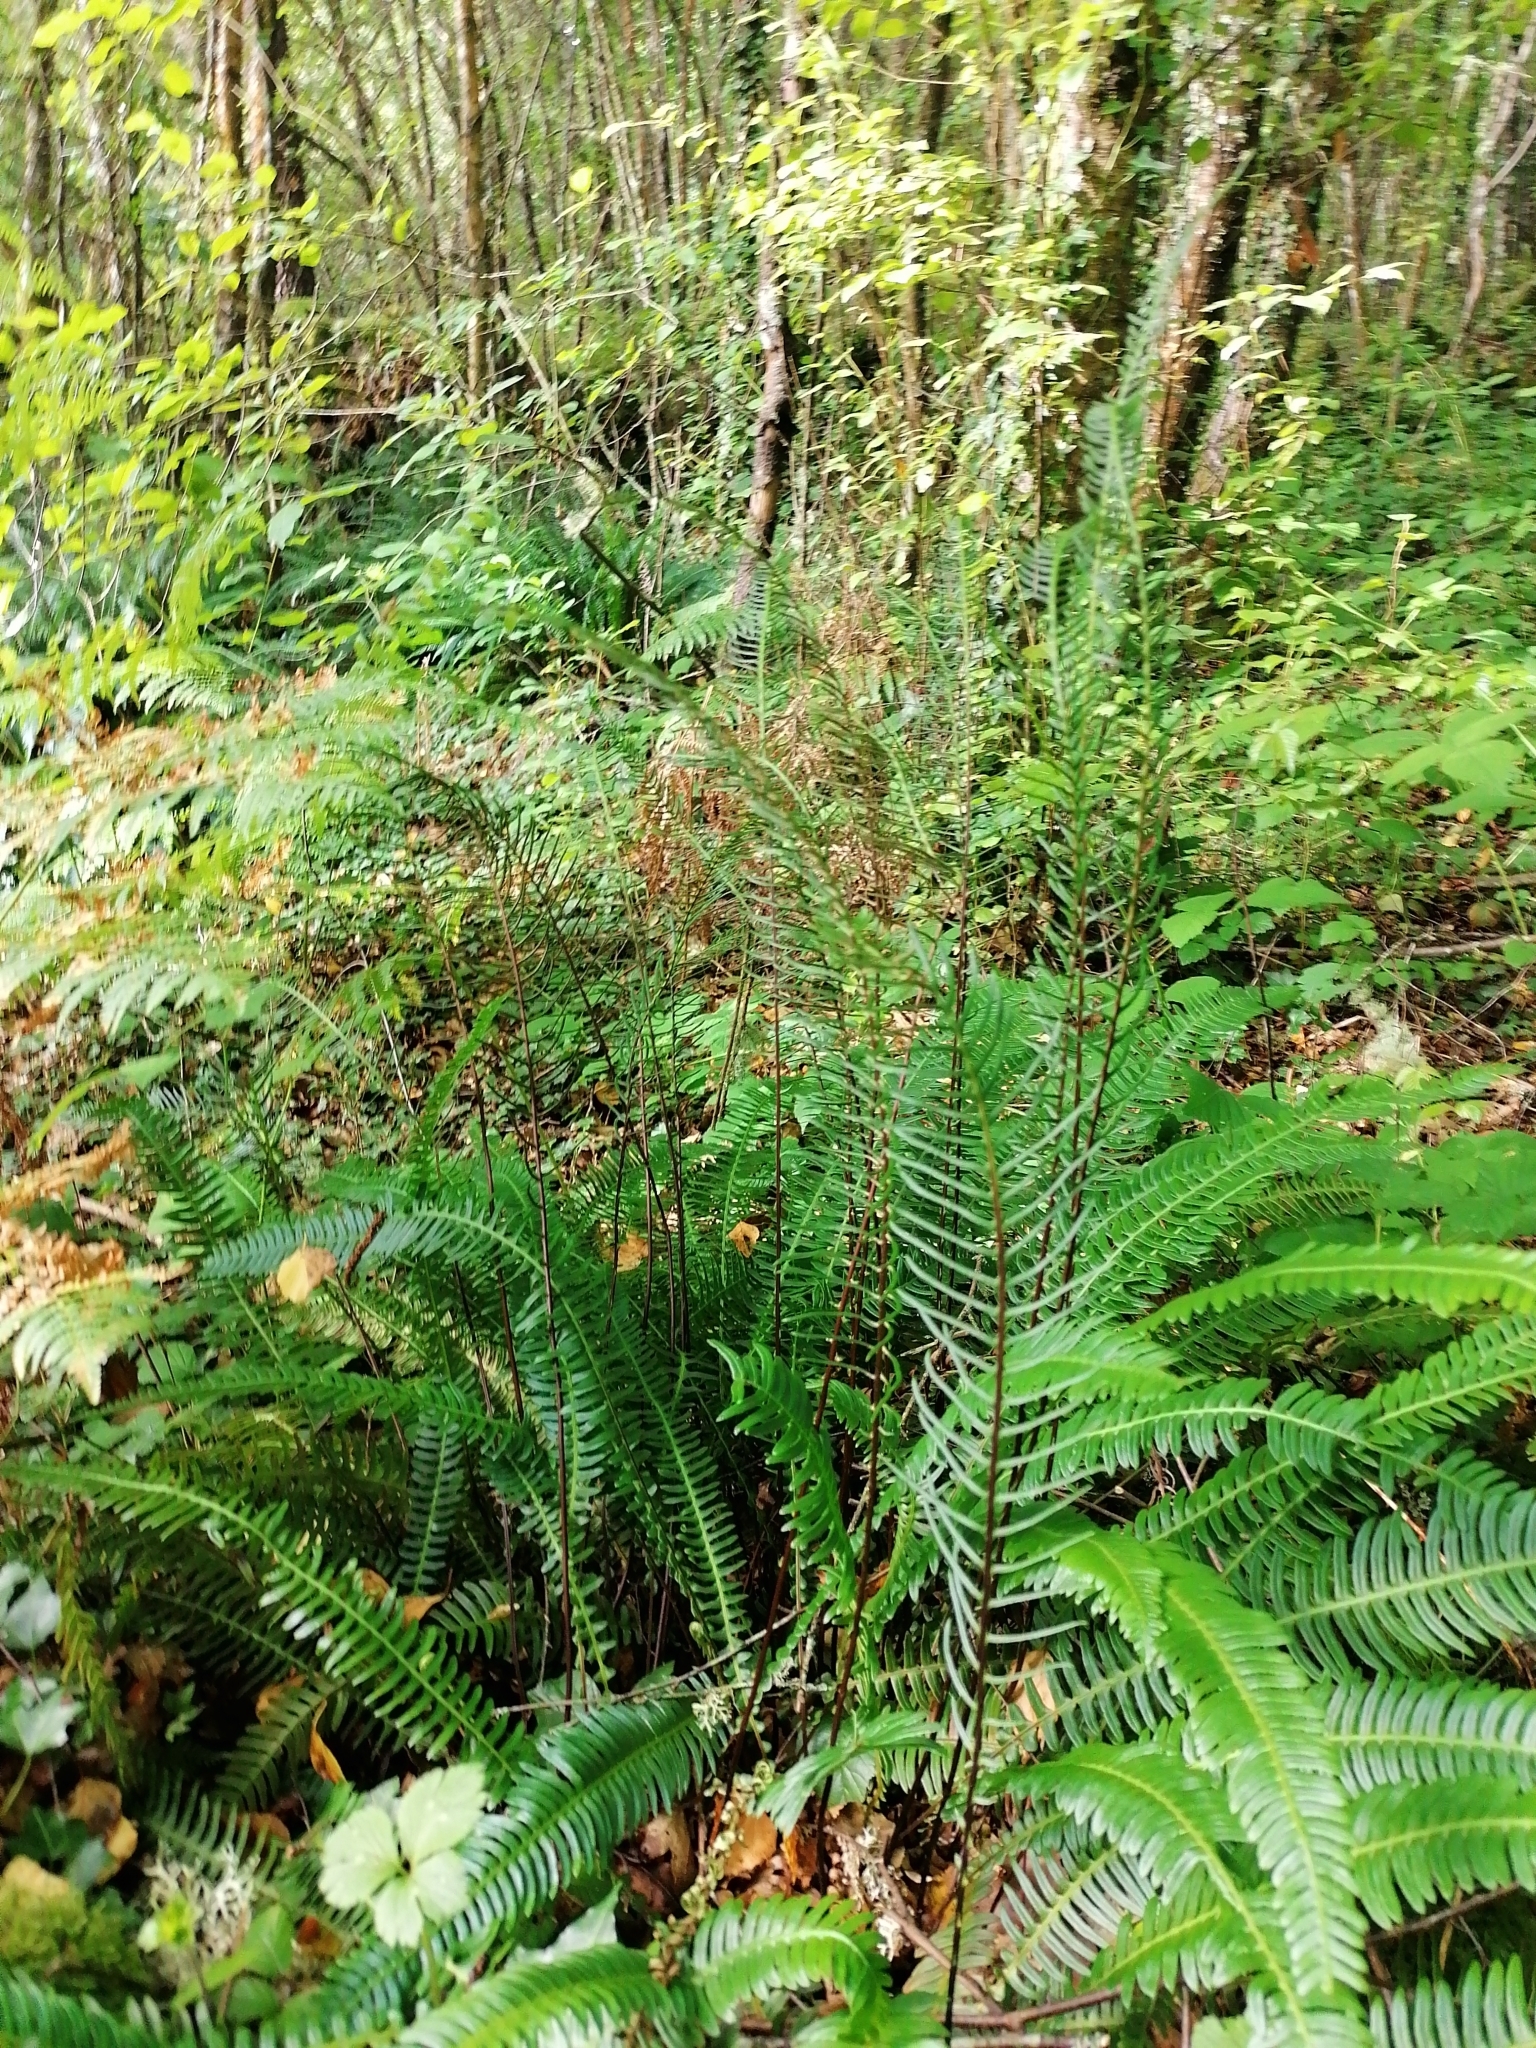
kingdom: Plantae
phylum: Tracheophyta
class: Polypodiopsida
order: Polypodiales
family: Blechnaceae
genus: Struthiopteris
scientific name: Struthiopteris spicant
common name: Deer fern
